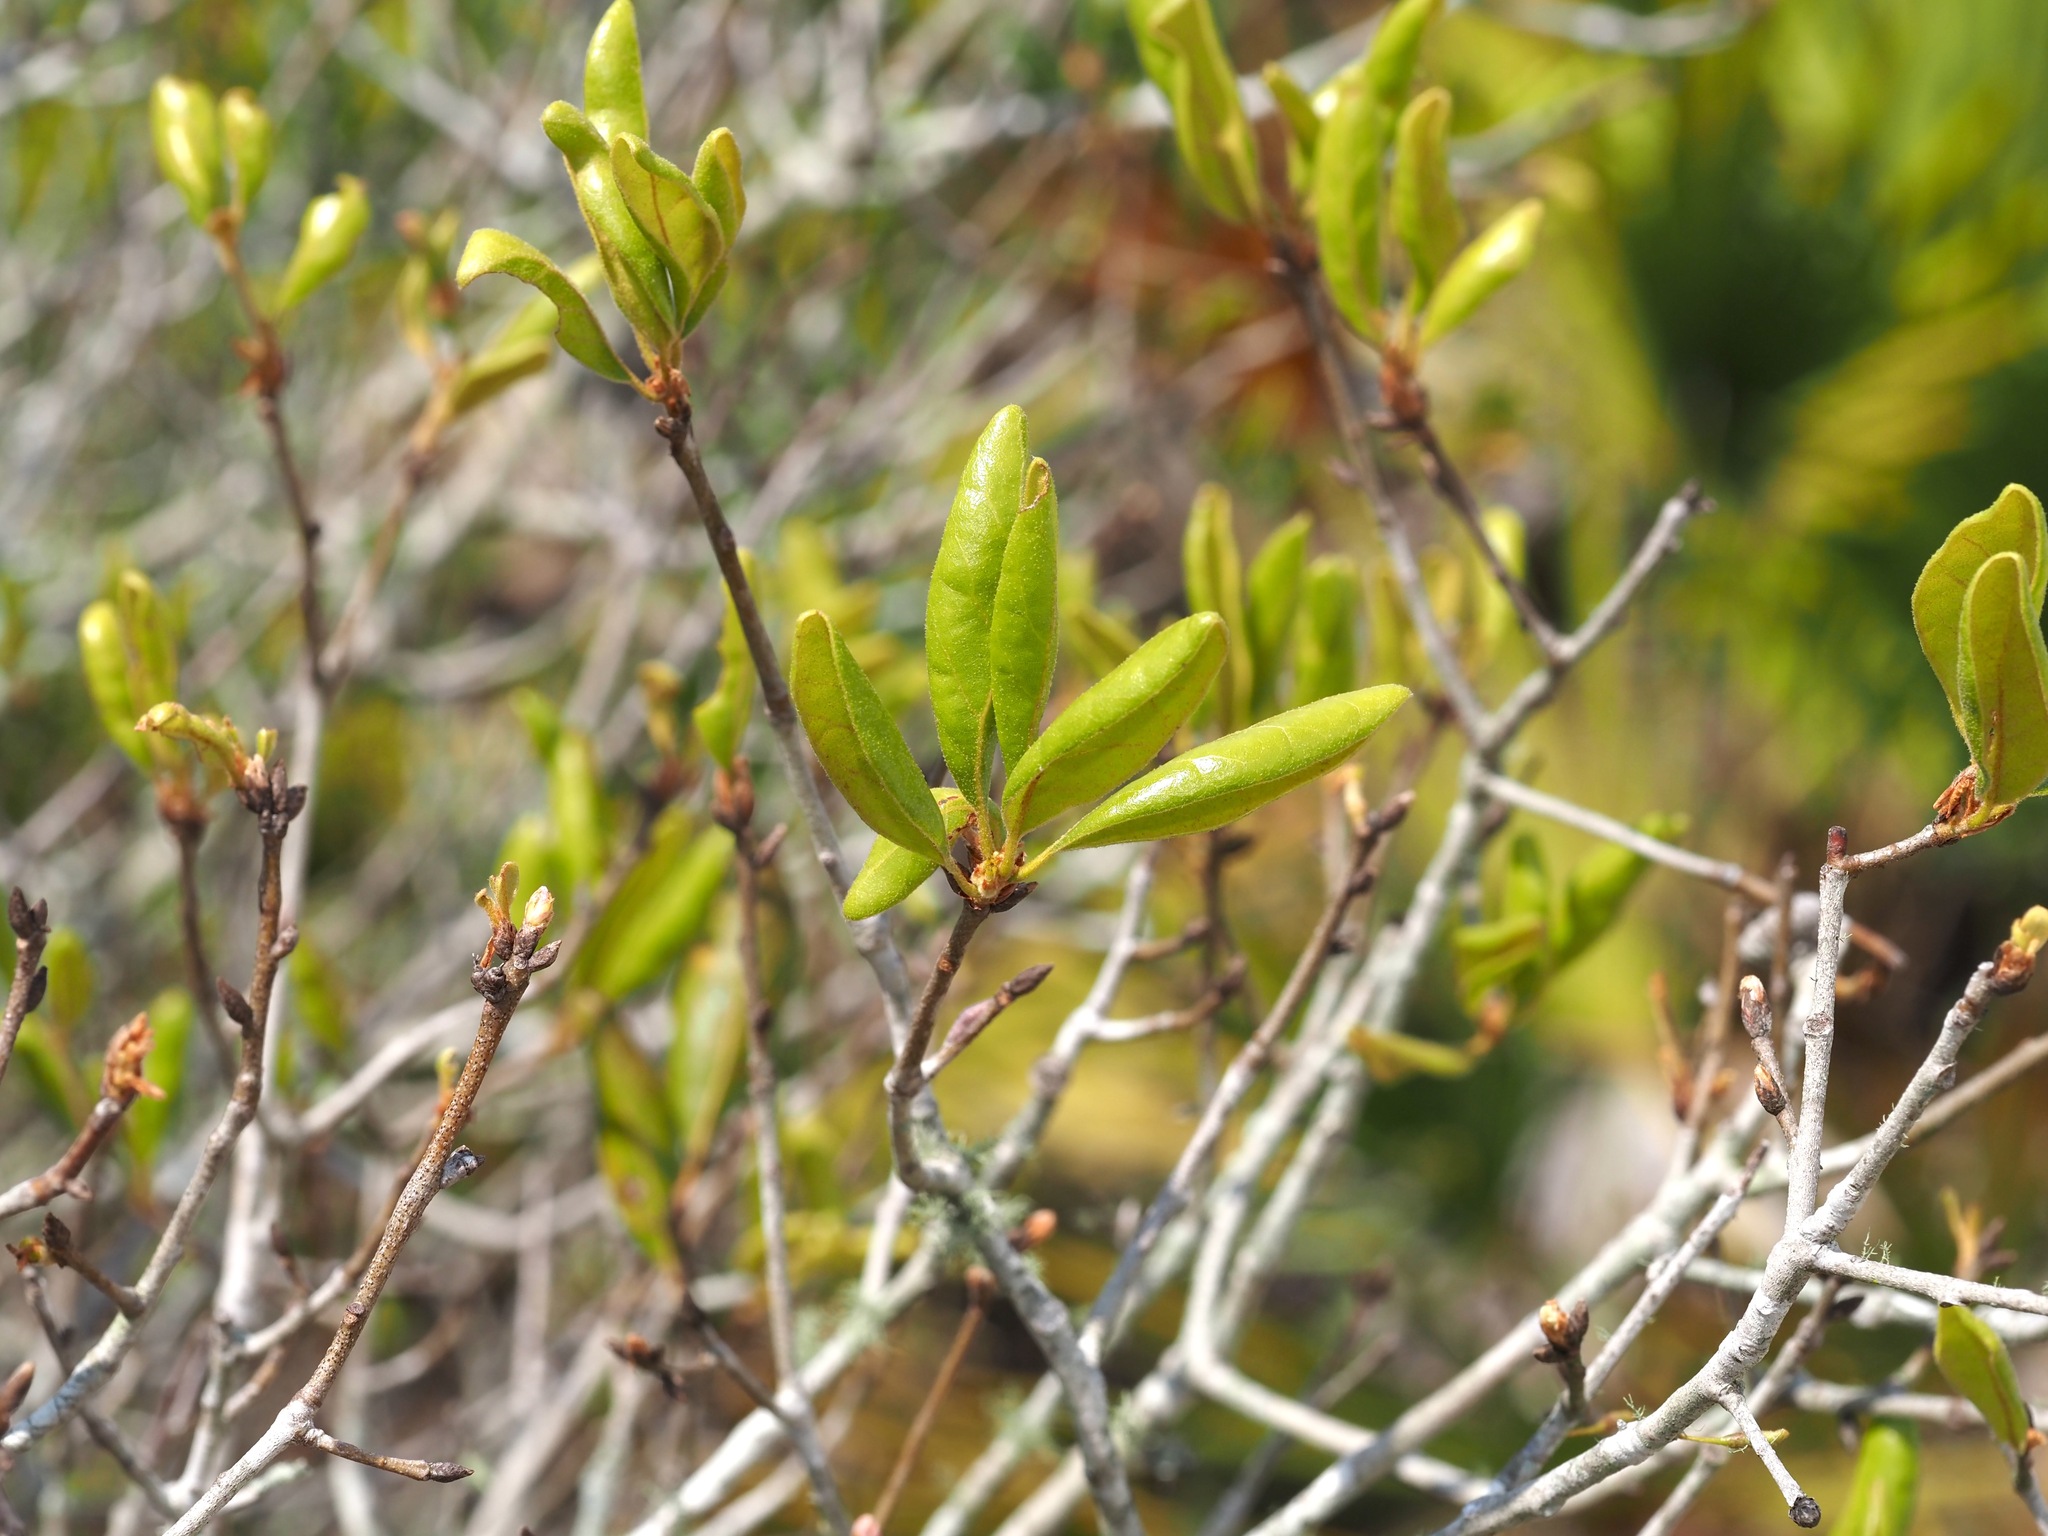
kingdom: Plantae
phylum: Tracheophyta
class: Magnoliopsida
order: Fagales
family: Fagaceae
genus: Quercus
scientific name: Quercus inopina
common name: Sandhill oak
